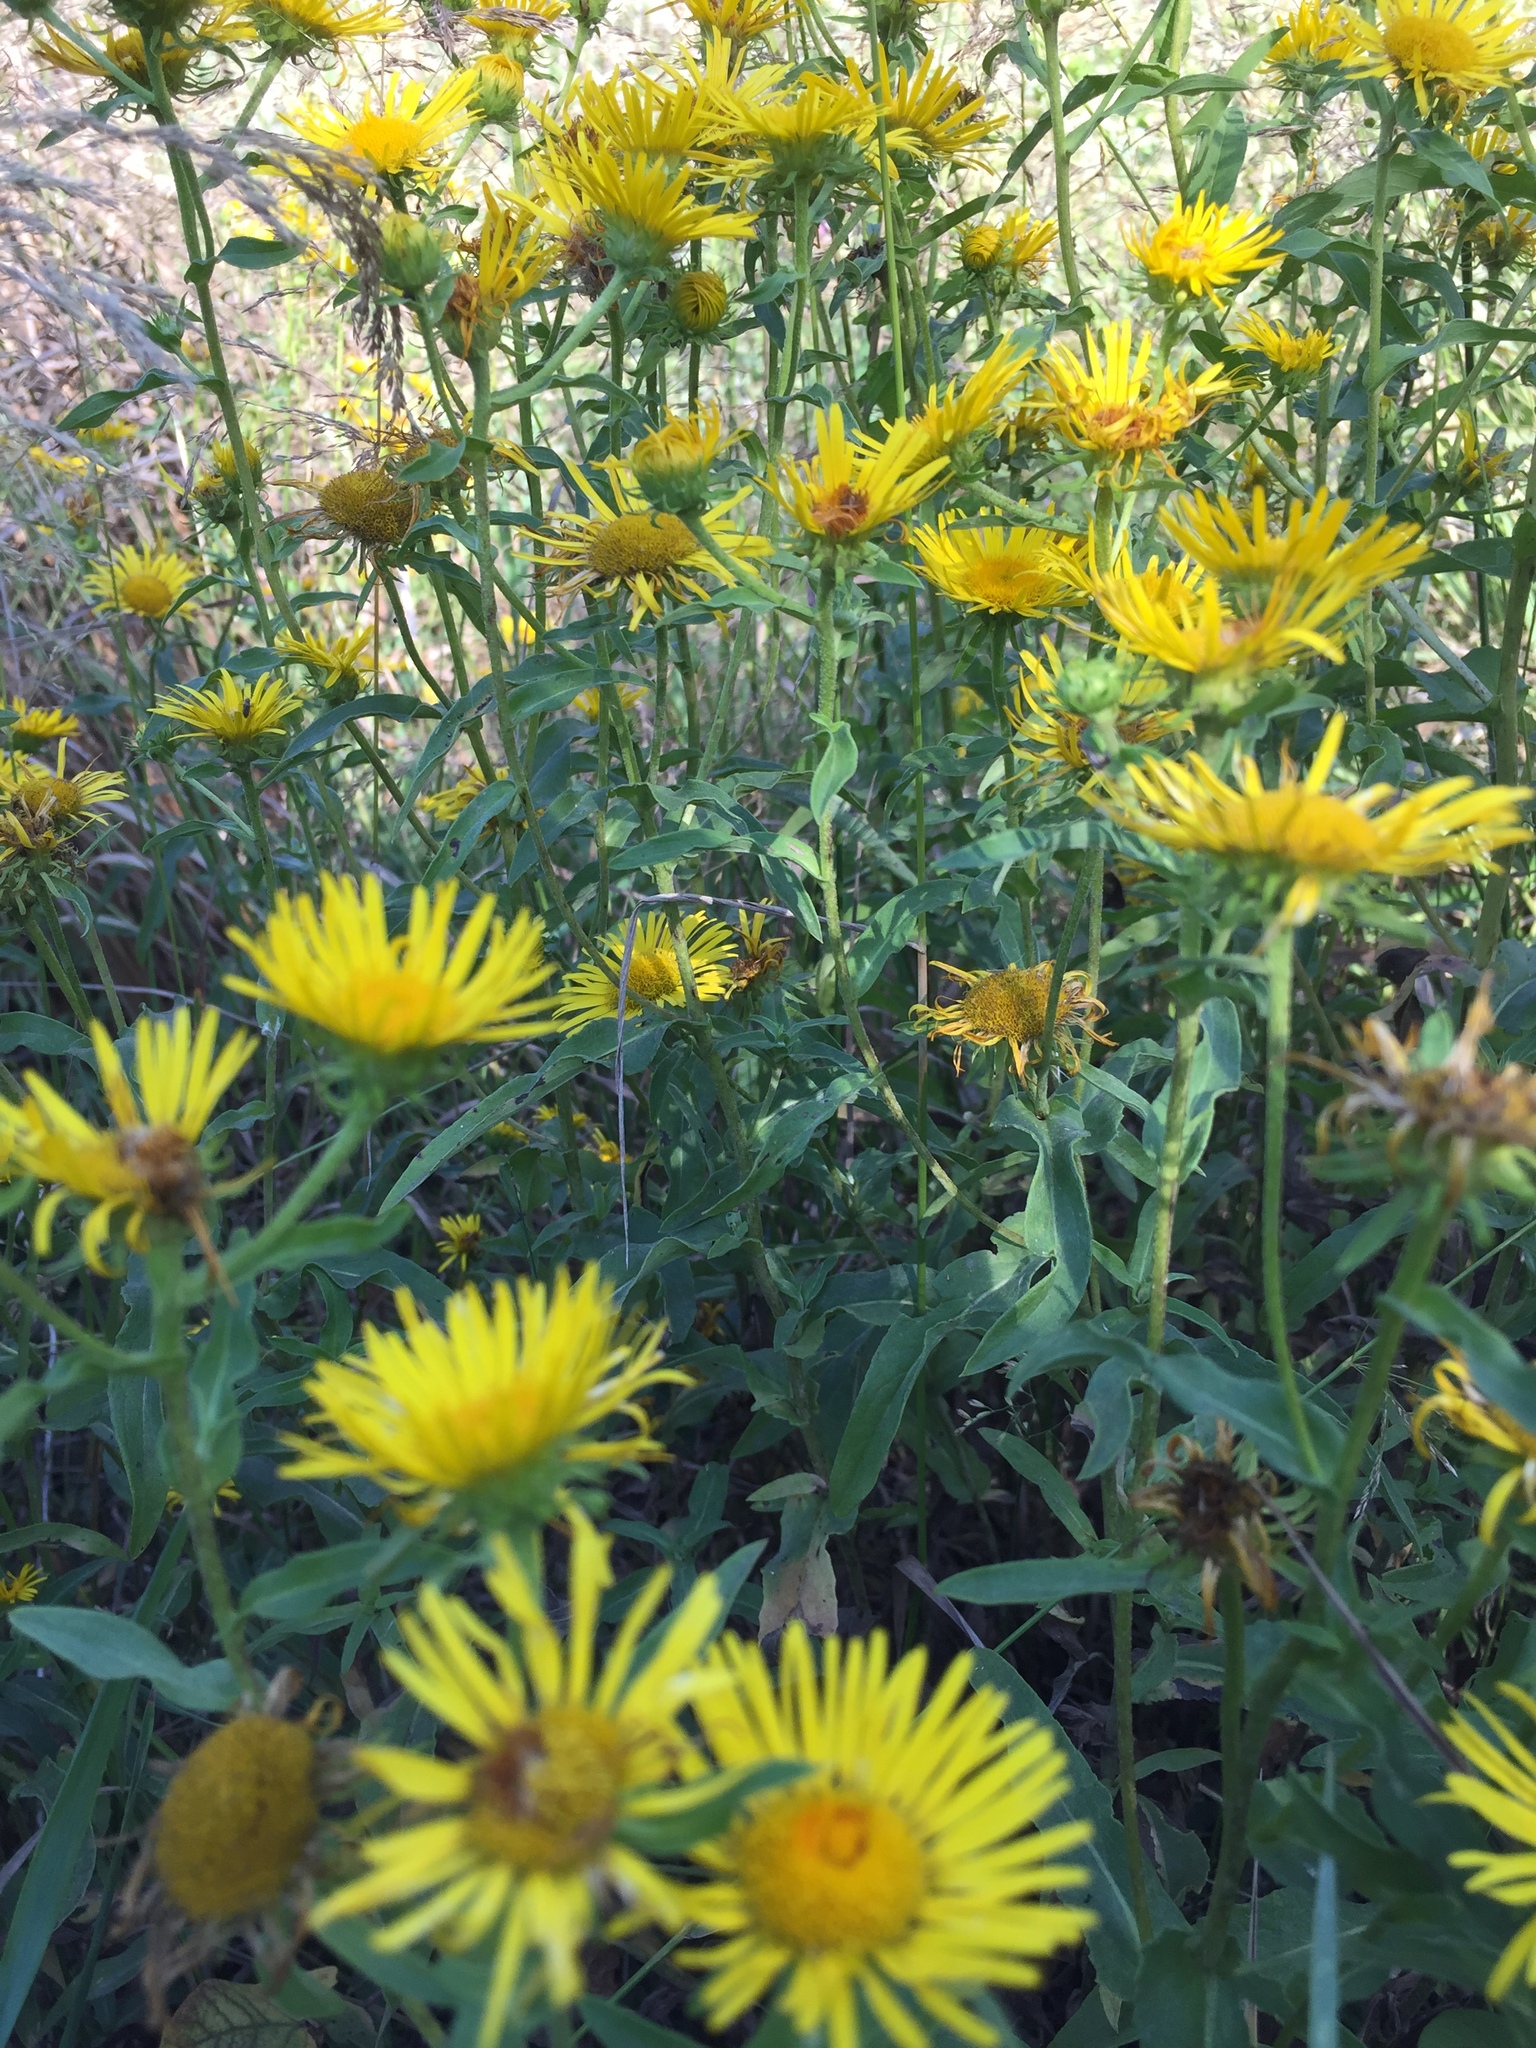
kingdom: Plantae
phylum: Tracheophyta
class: Magnoliopsida
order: Asterales
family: Asteraceae
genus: Pentanema
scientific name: Pentanema britannicum
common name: British elecampane
